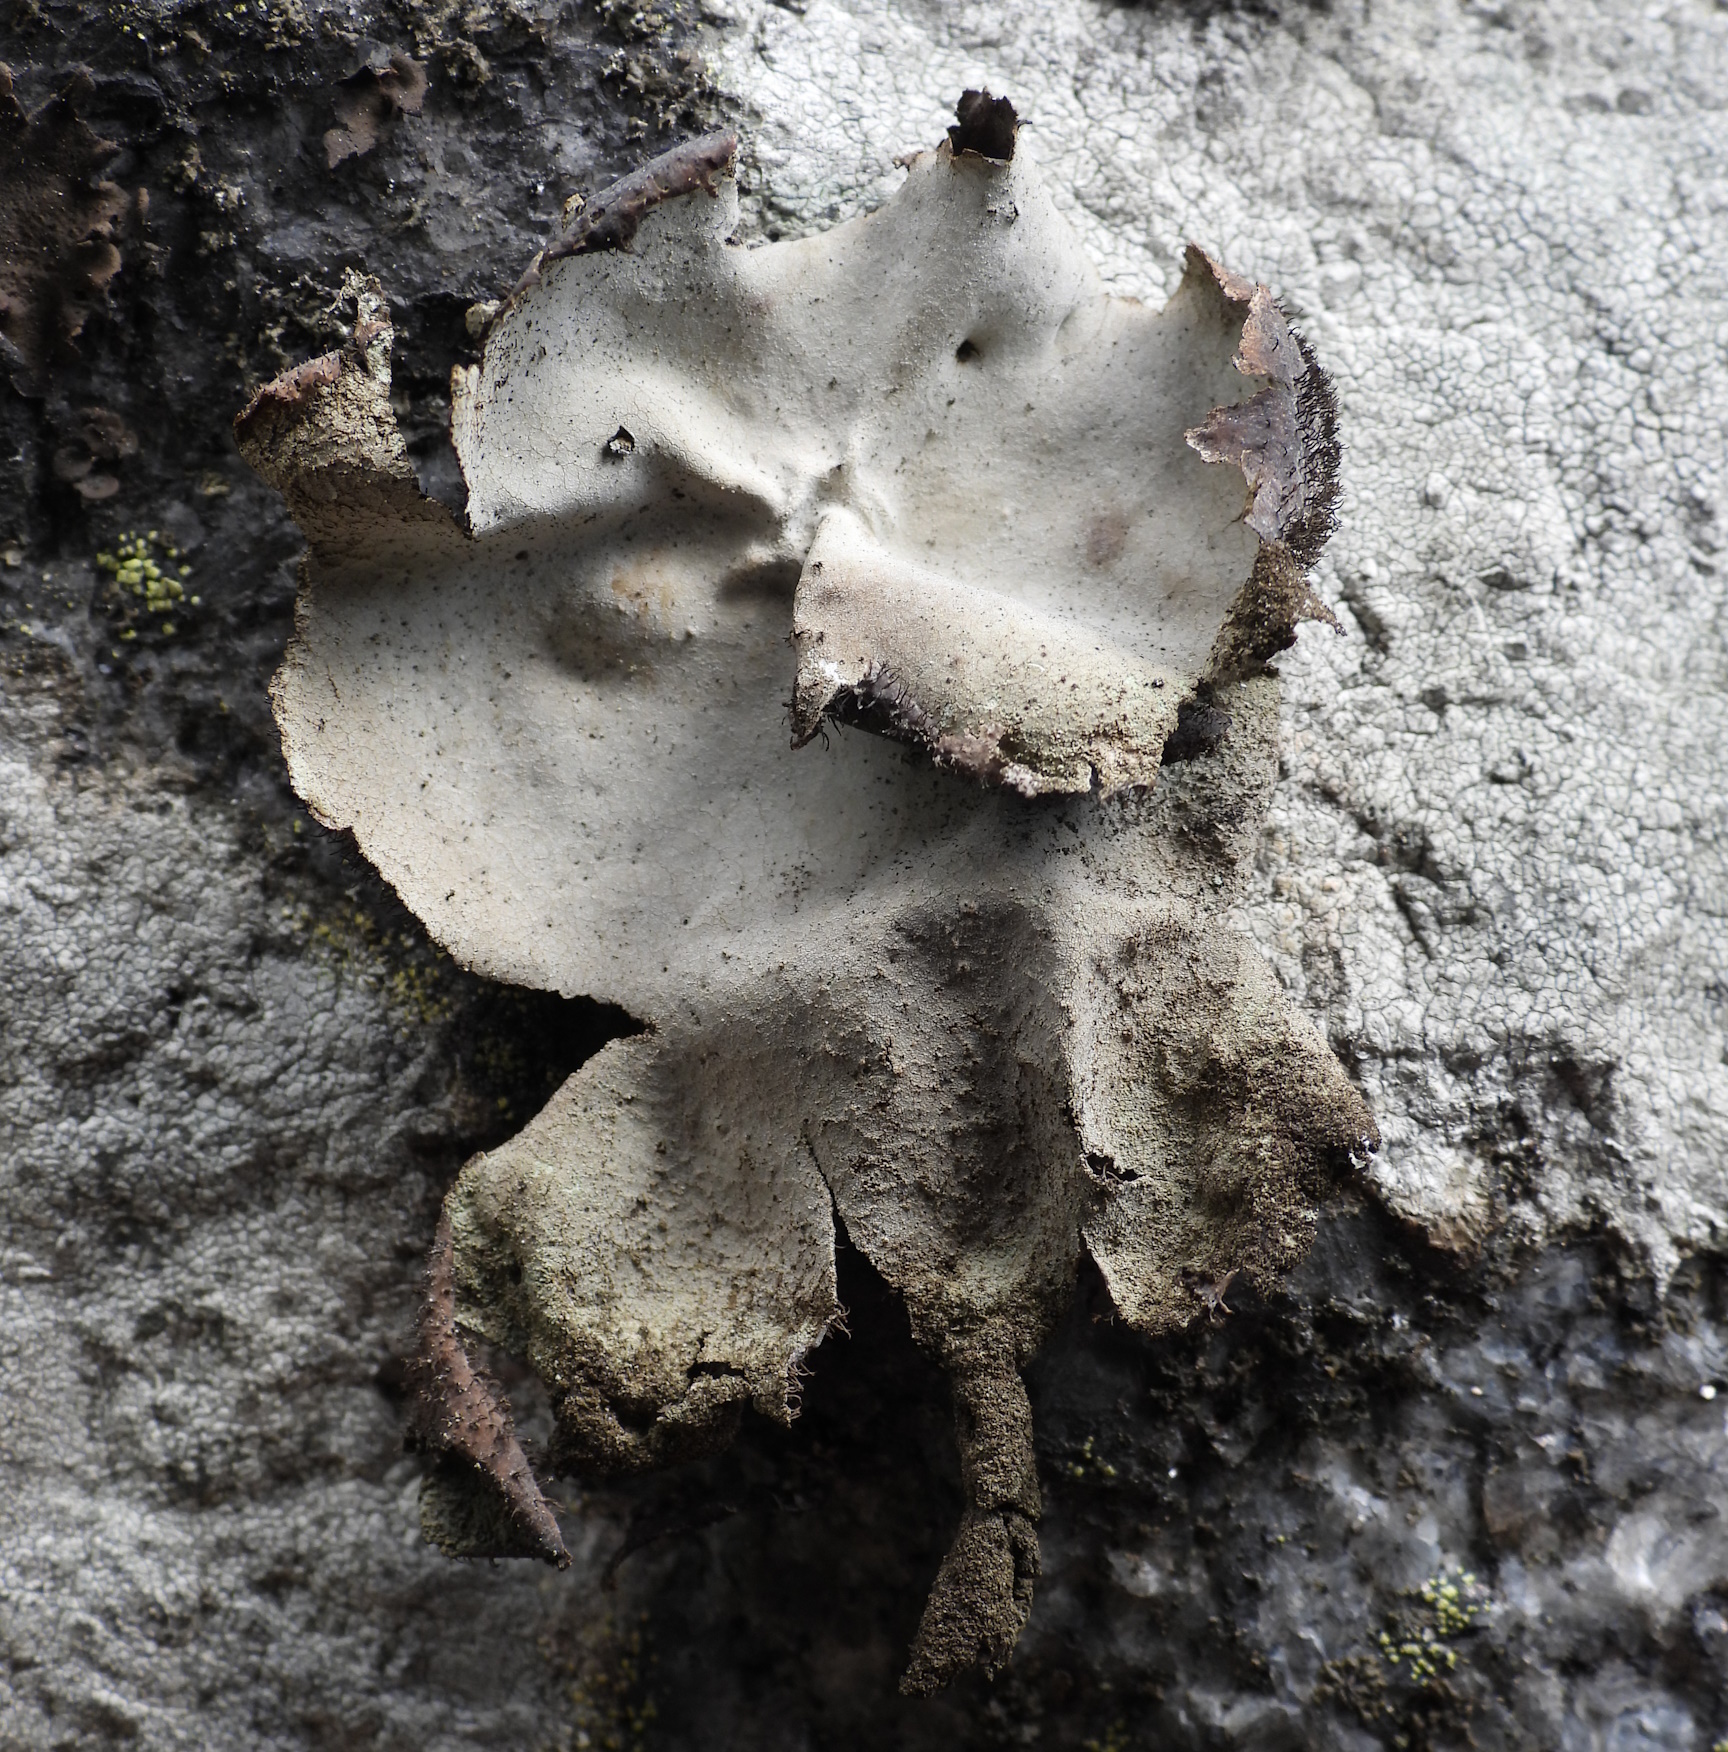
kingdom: Fungi
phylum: Ascomycota
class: Lecanoromycetes
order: Umbilicariales
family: Umbilicariaceae
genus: Umbilicaria
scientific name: Umbilicaria hirsuta
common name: Granulating rocktripe lichen
